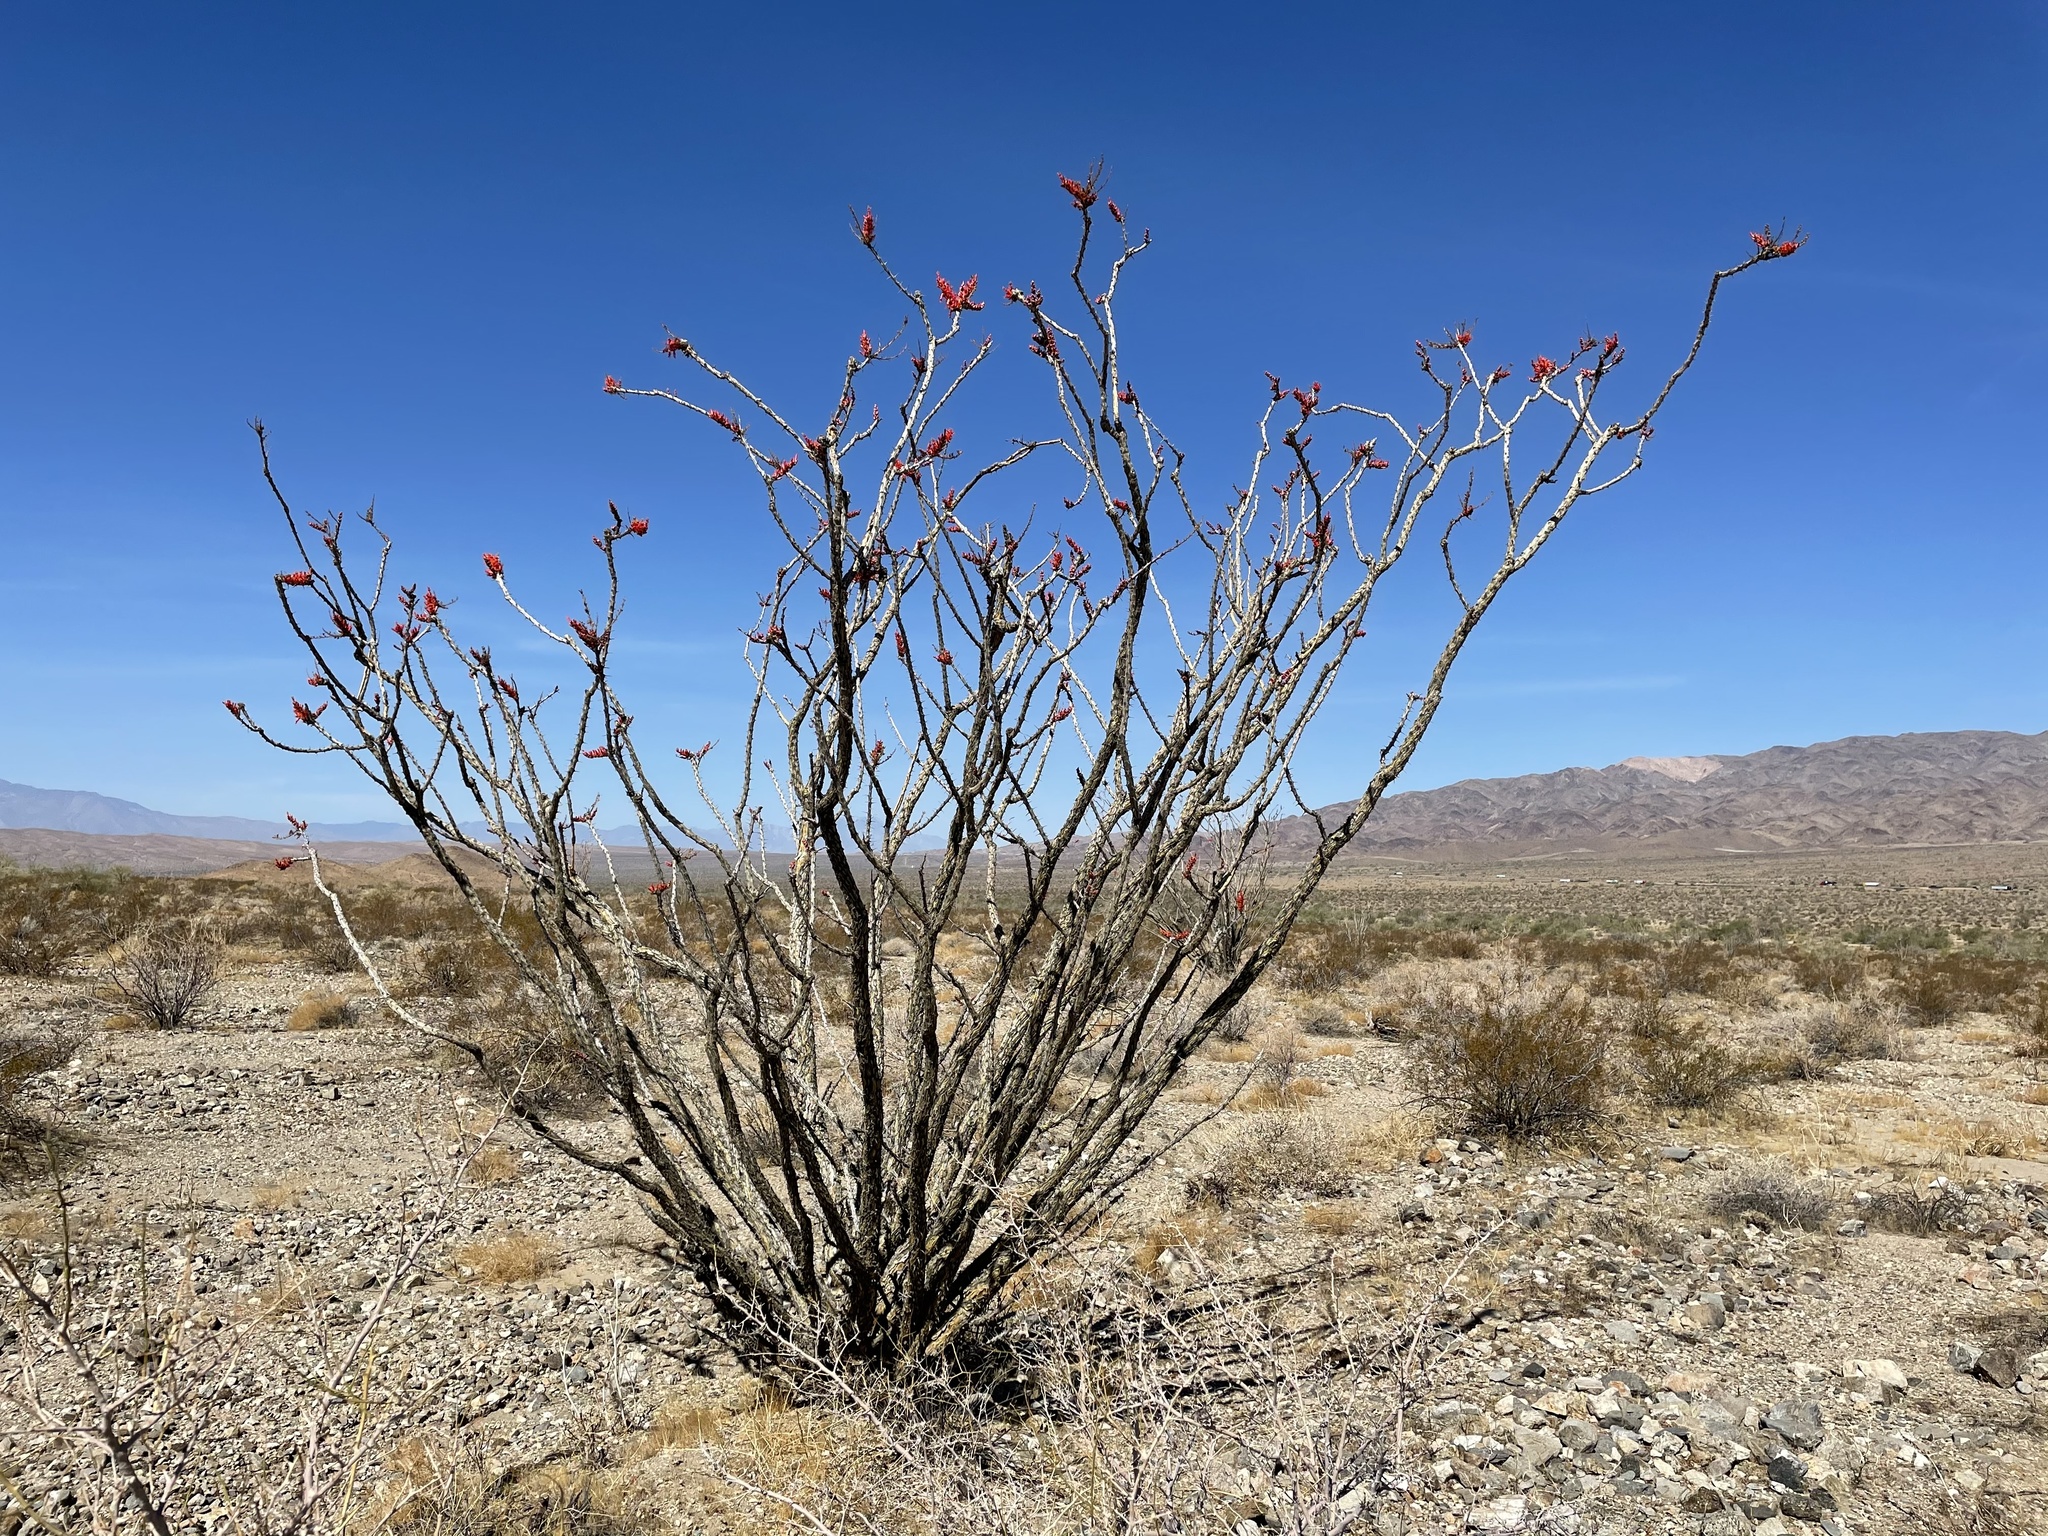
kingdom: Plantae
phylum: Tracheophyta
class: Magnoliopsida
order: Ericales
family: Fouquieriaceae
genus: Fouquieria
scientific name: Fouquieria splendens
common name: Vine-cactus
